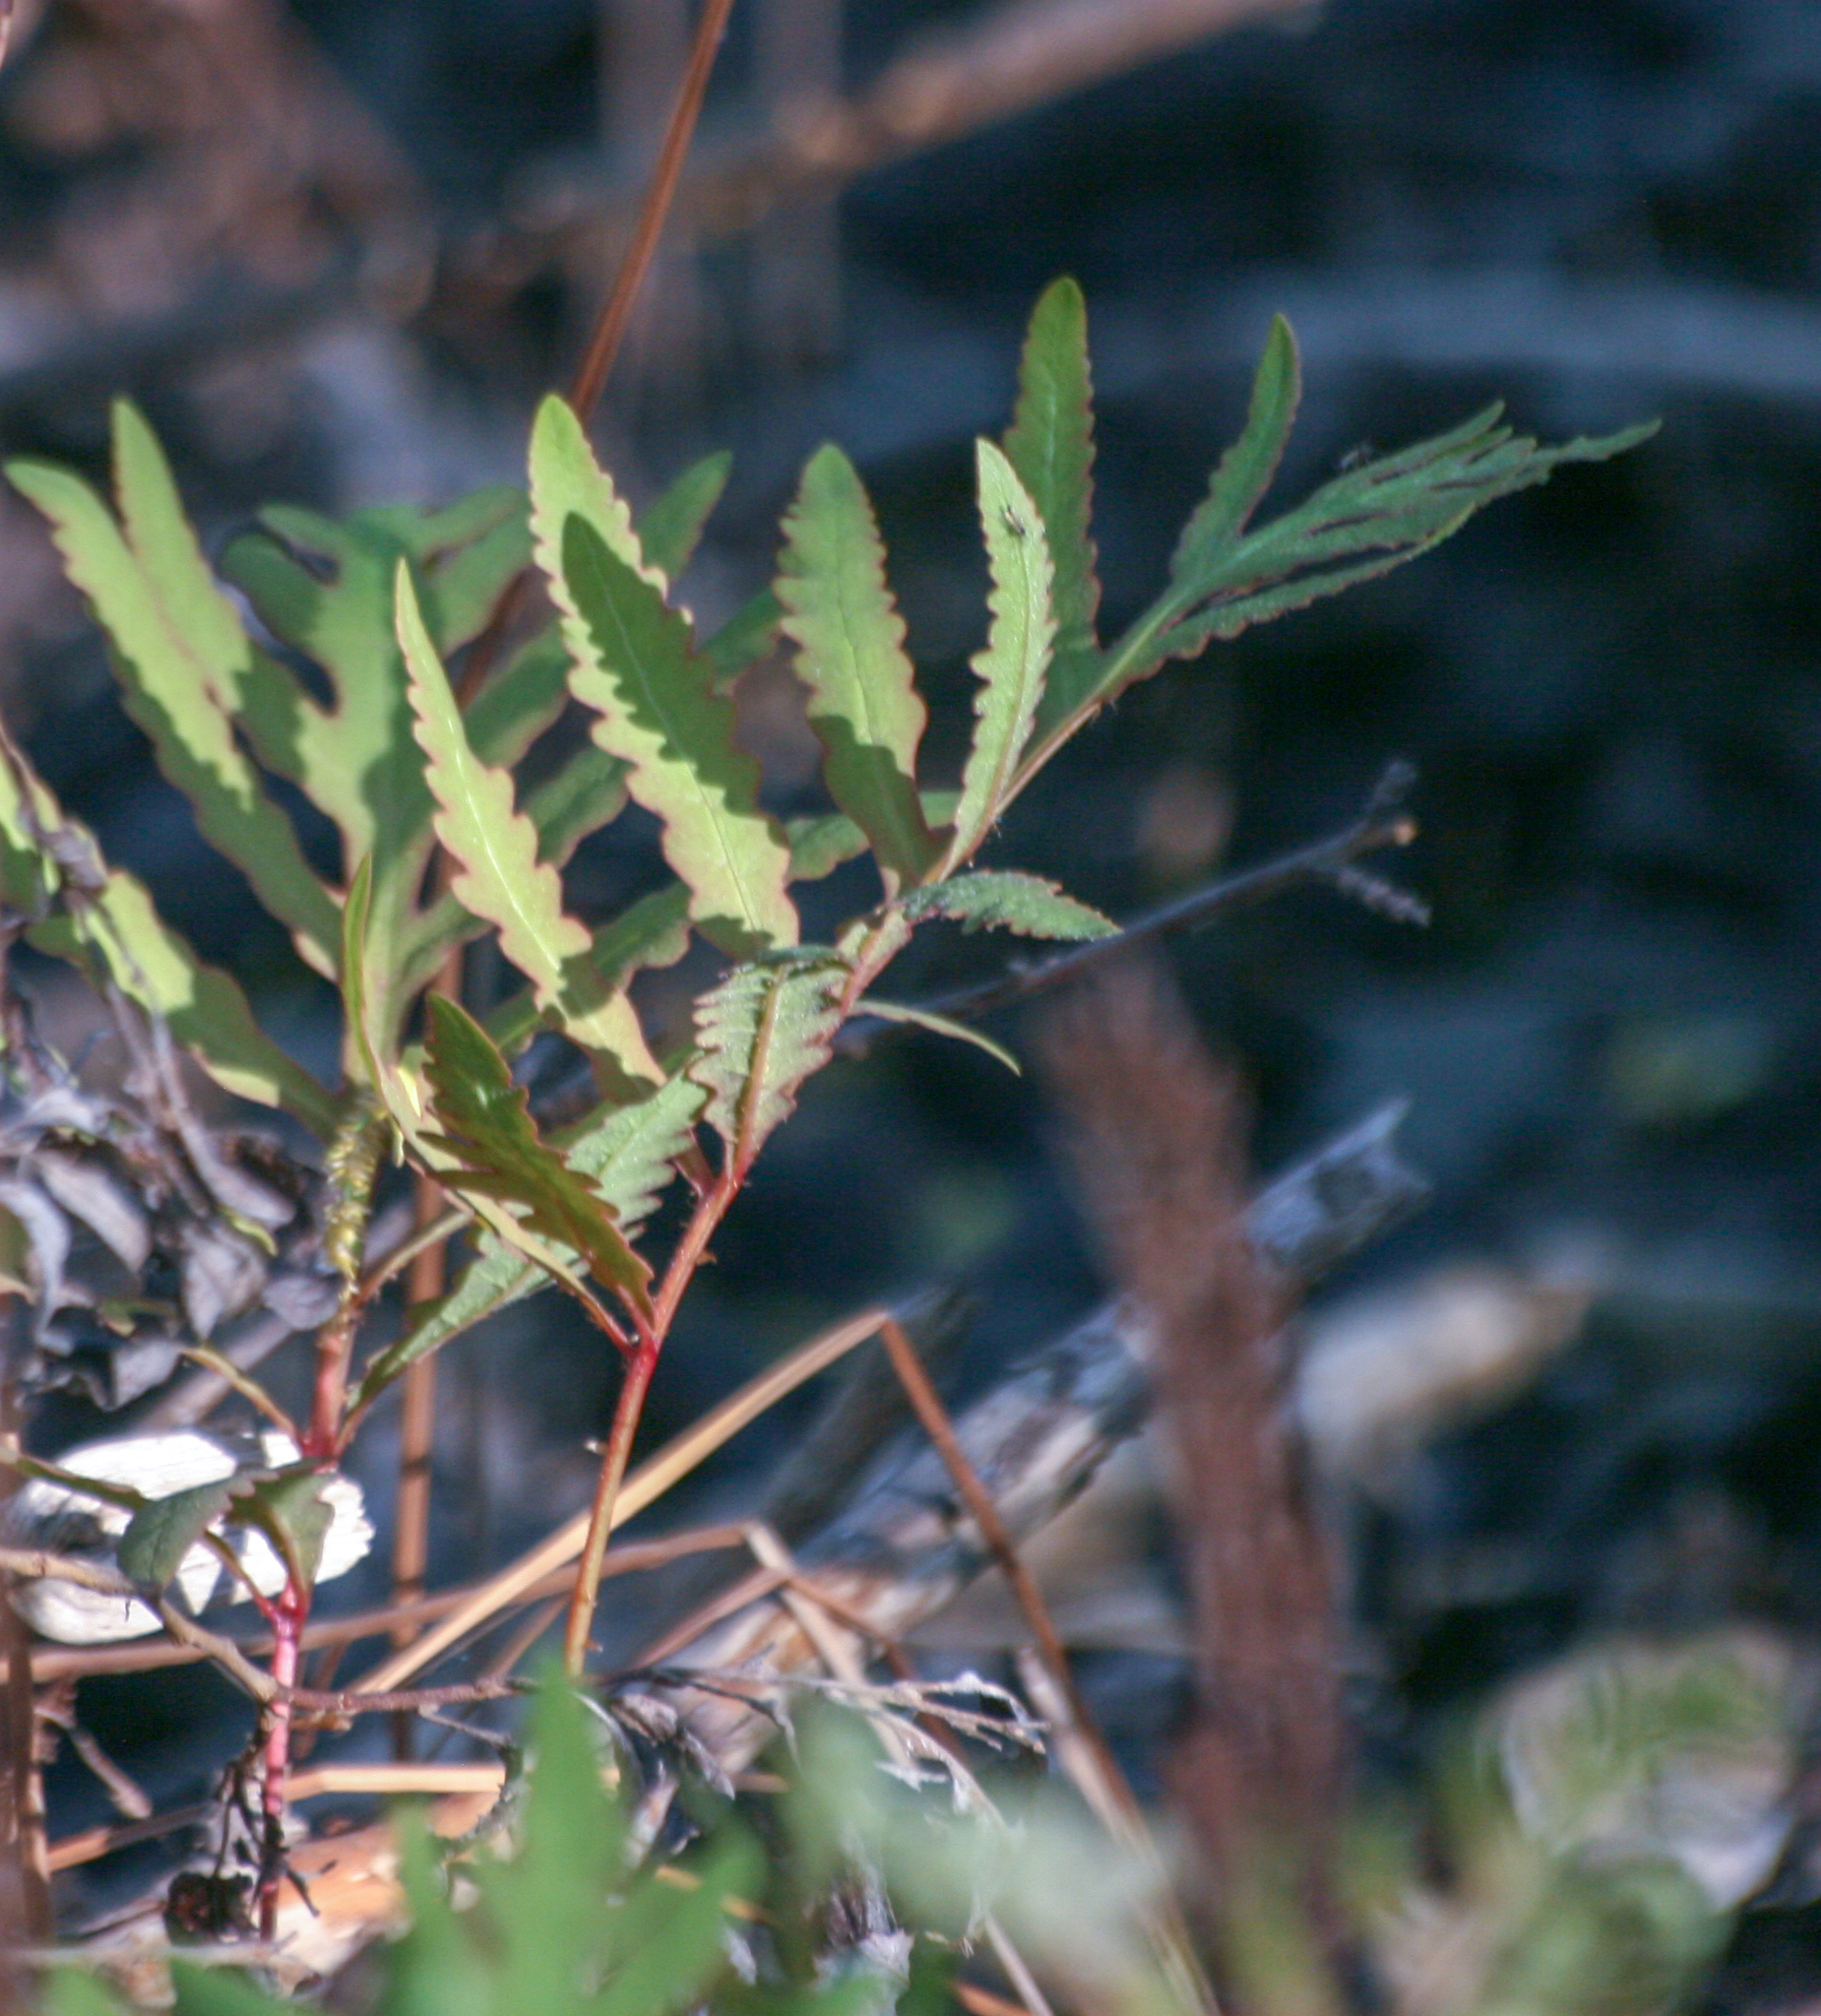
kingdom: Plantae
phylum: Tracheophyta
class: Polypodiopsida
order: Polypodiales
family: Onocleaceae
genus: Onoclea
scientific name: Onoclea sensibilis
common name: Sensitive fern
